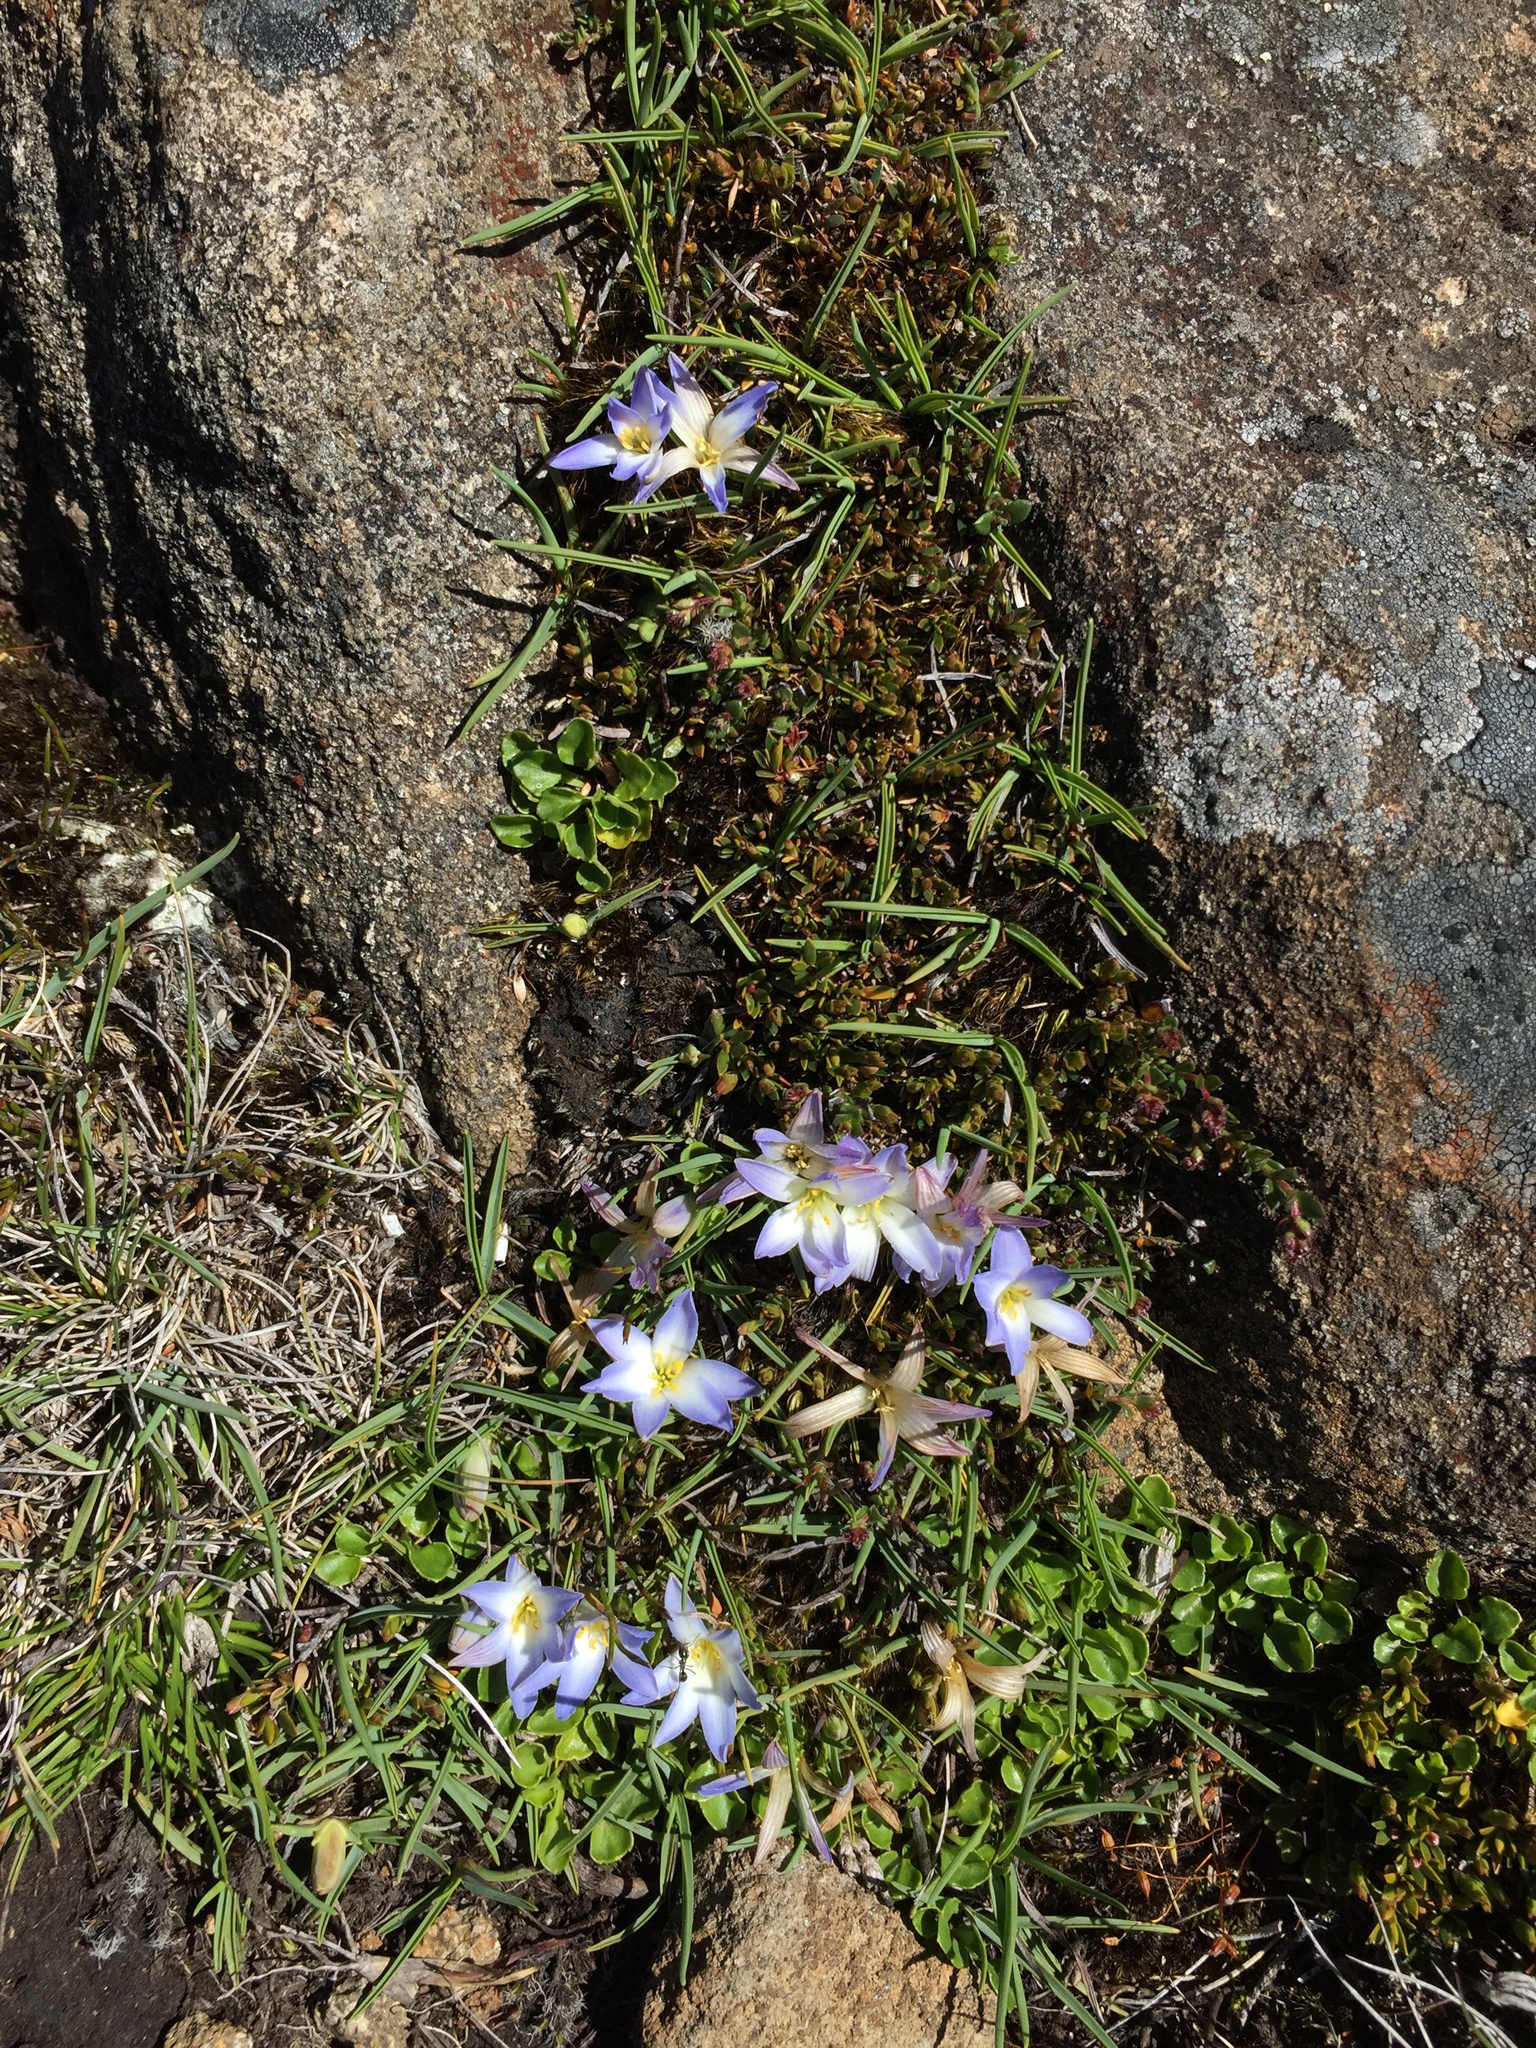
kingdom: Plantae
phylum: Tracheophyta
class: Liliopsida
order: Asparagales
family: Asphodelaceae
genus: Herpolirion
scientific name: Herpolirion novae-zelandiae
